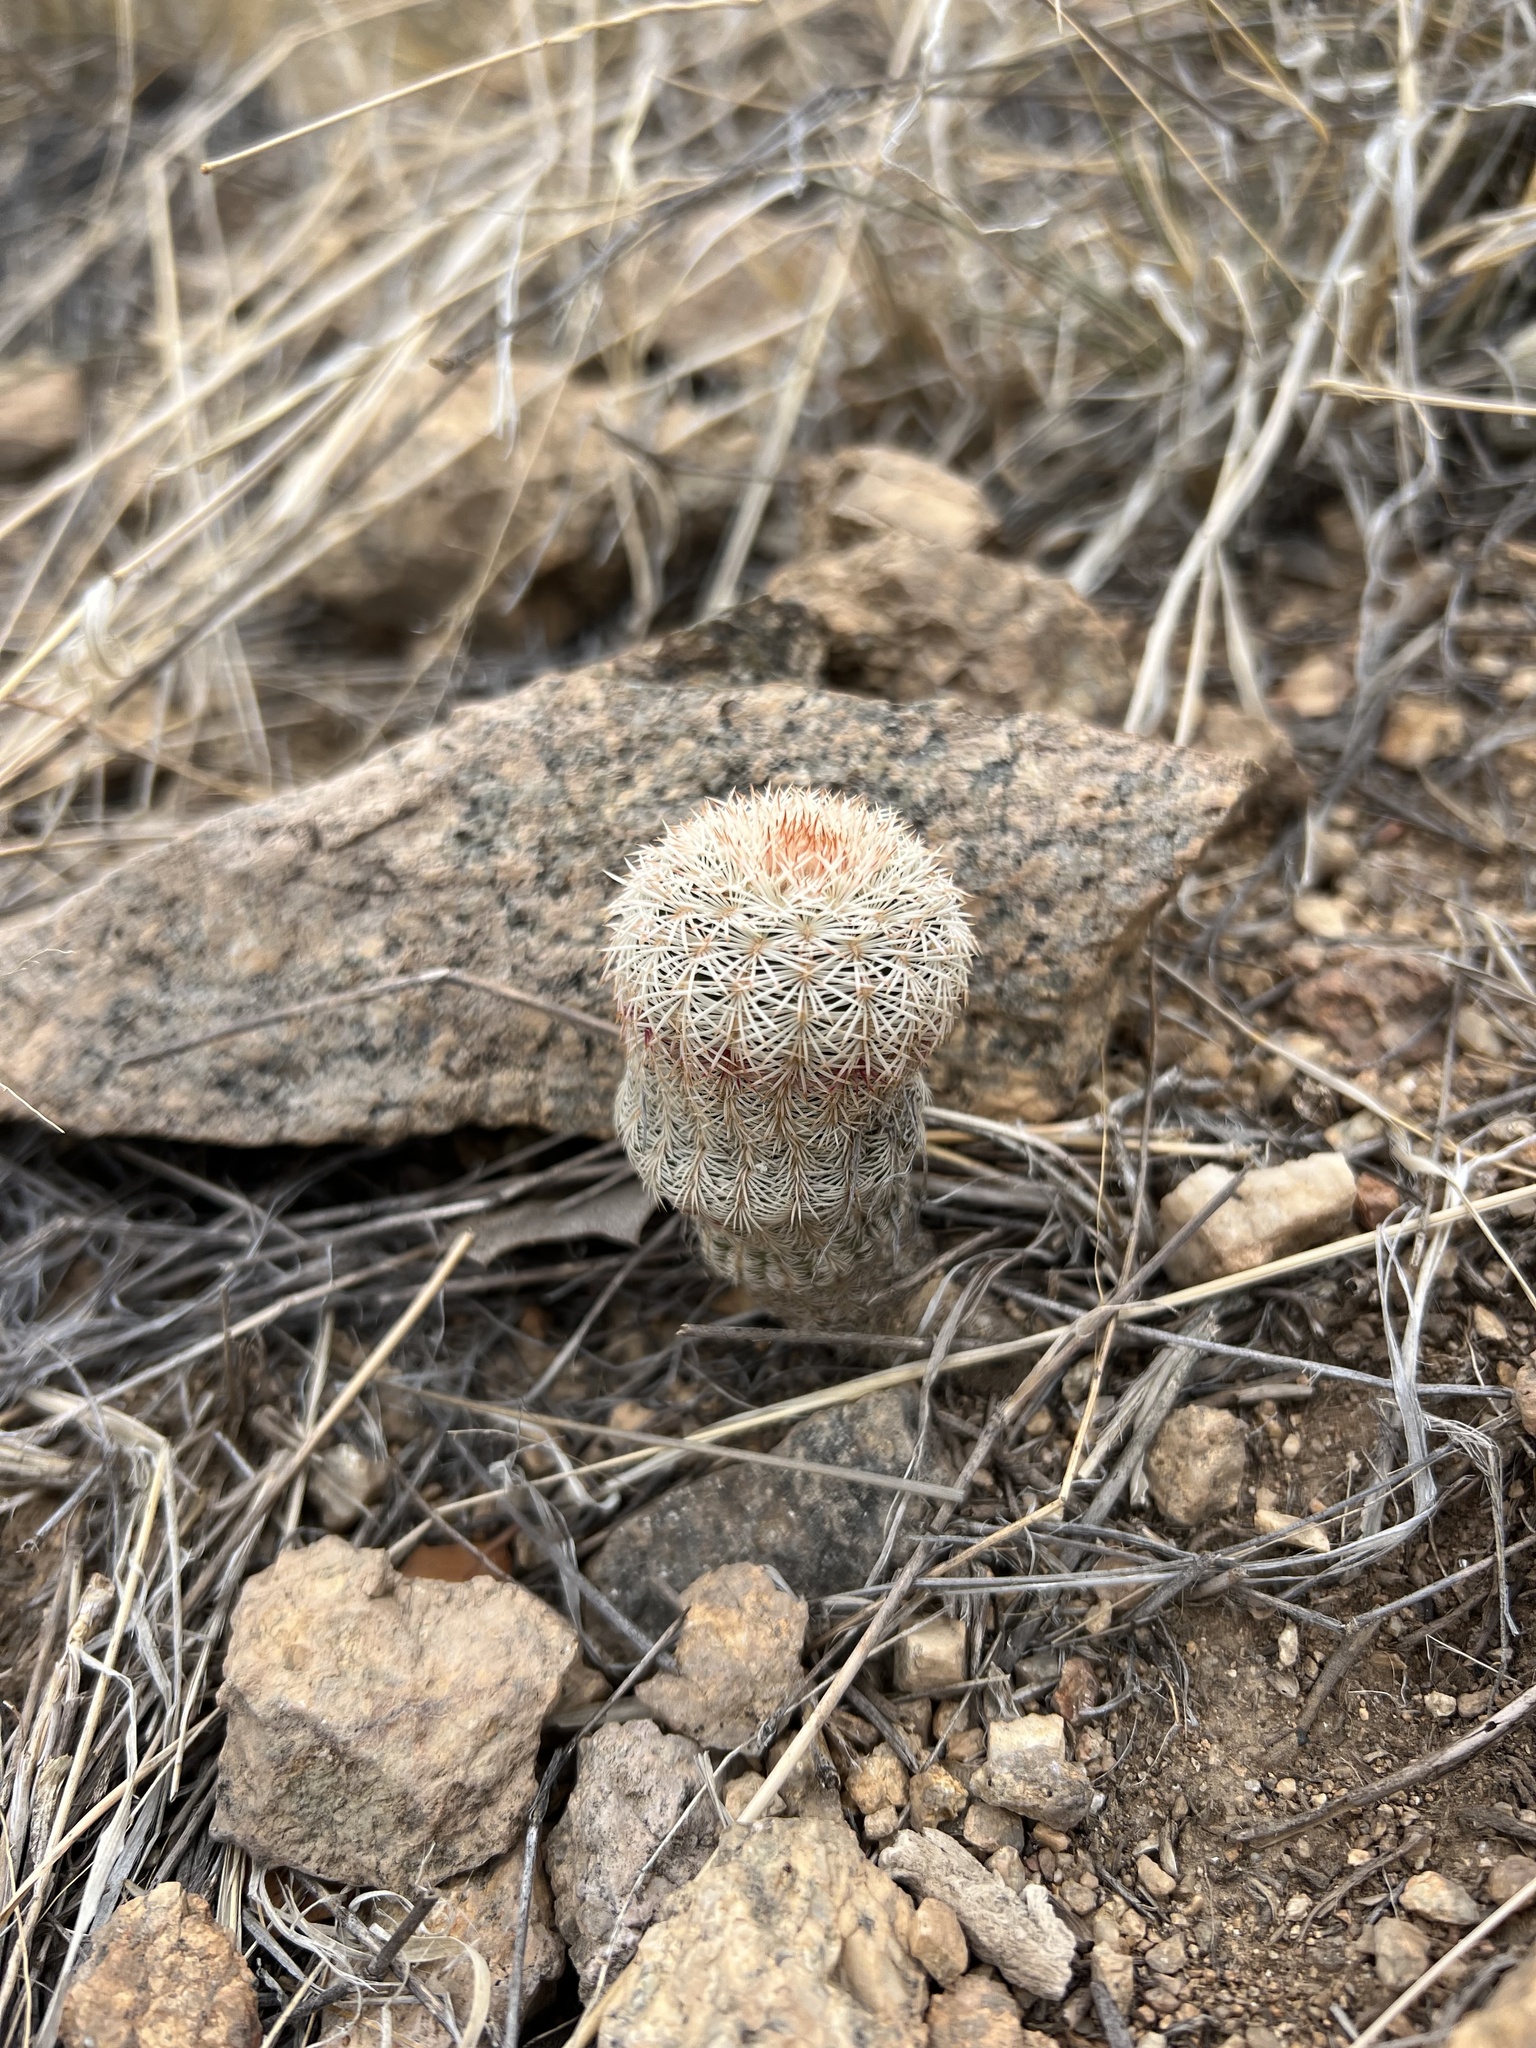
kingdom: Plantae
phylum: Tracheophyta
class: Magnoliopsida
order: Caryophyllales
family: Cactaceae
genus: Echinocereus
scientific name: Echinocereus rigidissimus
